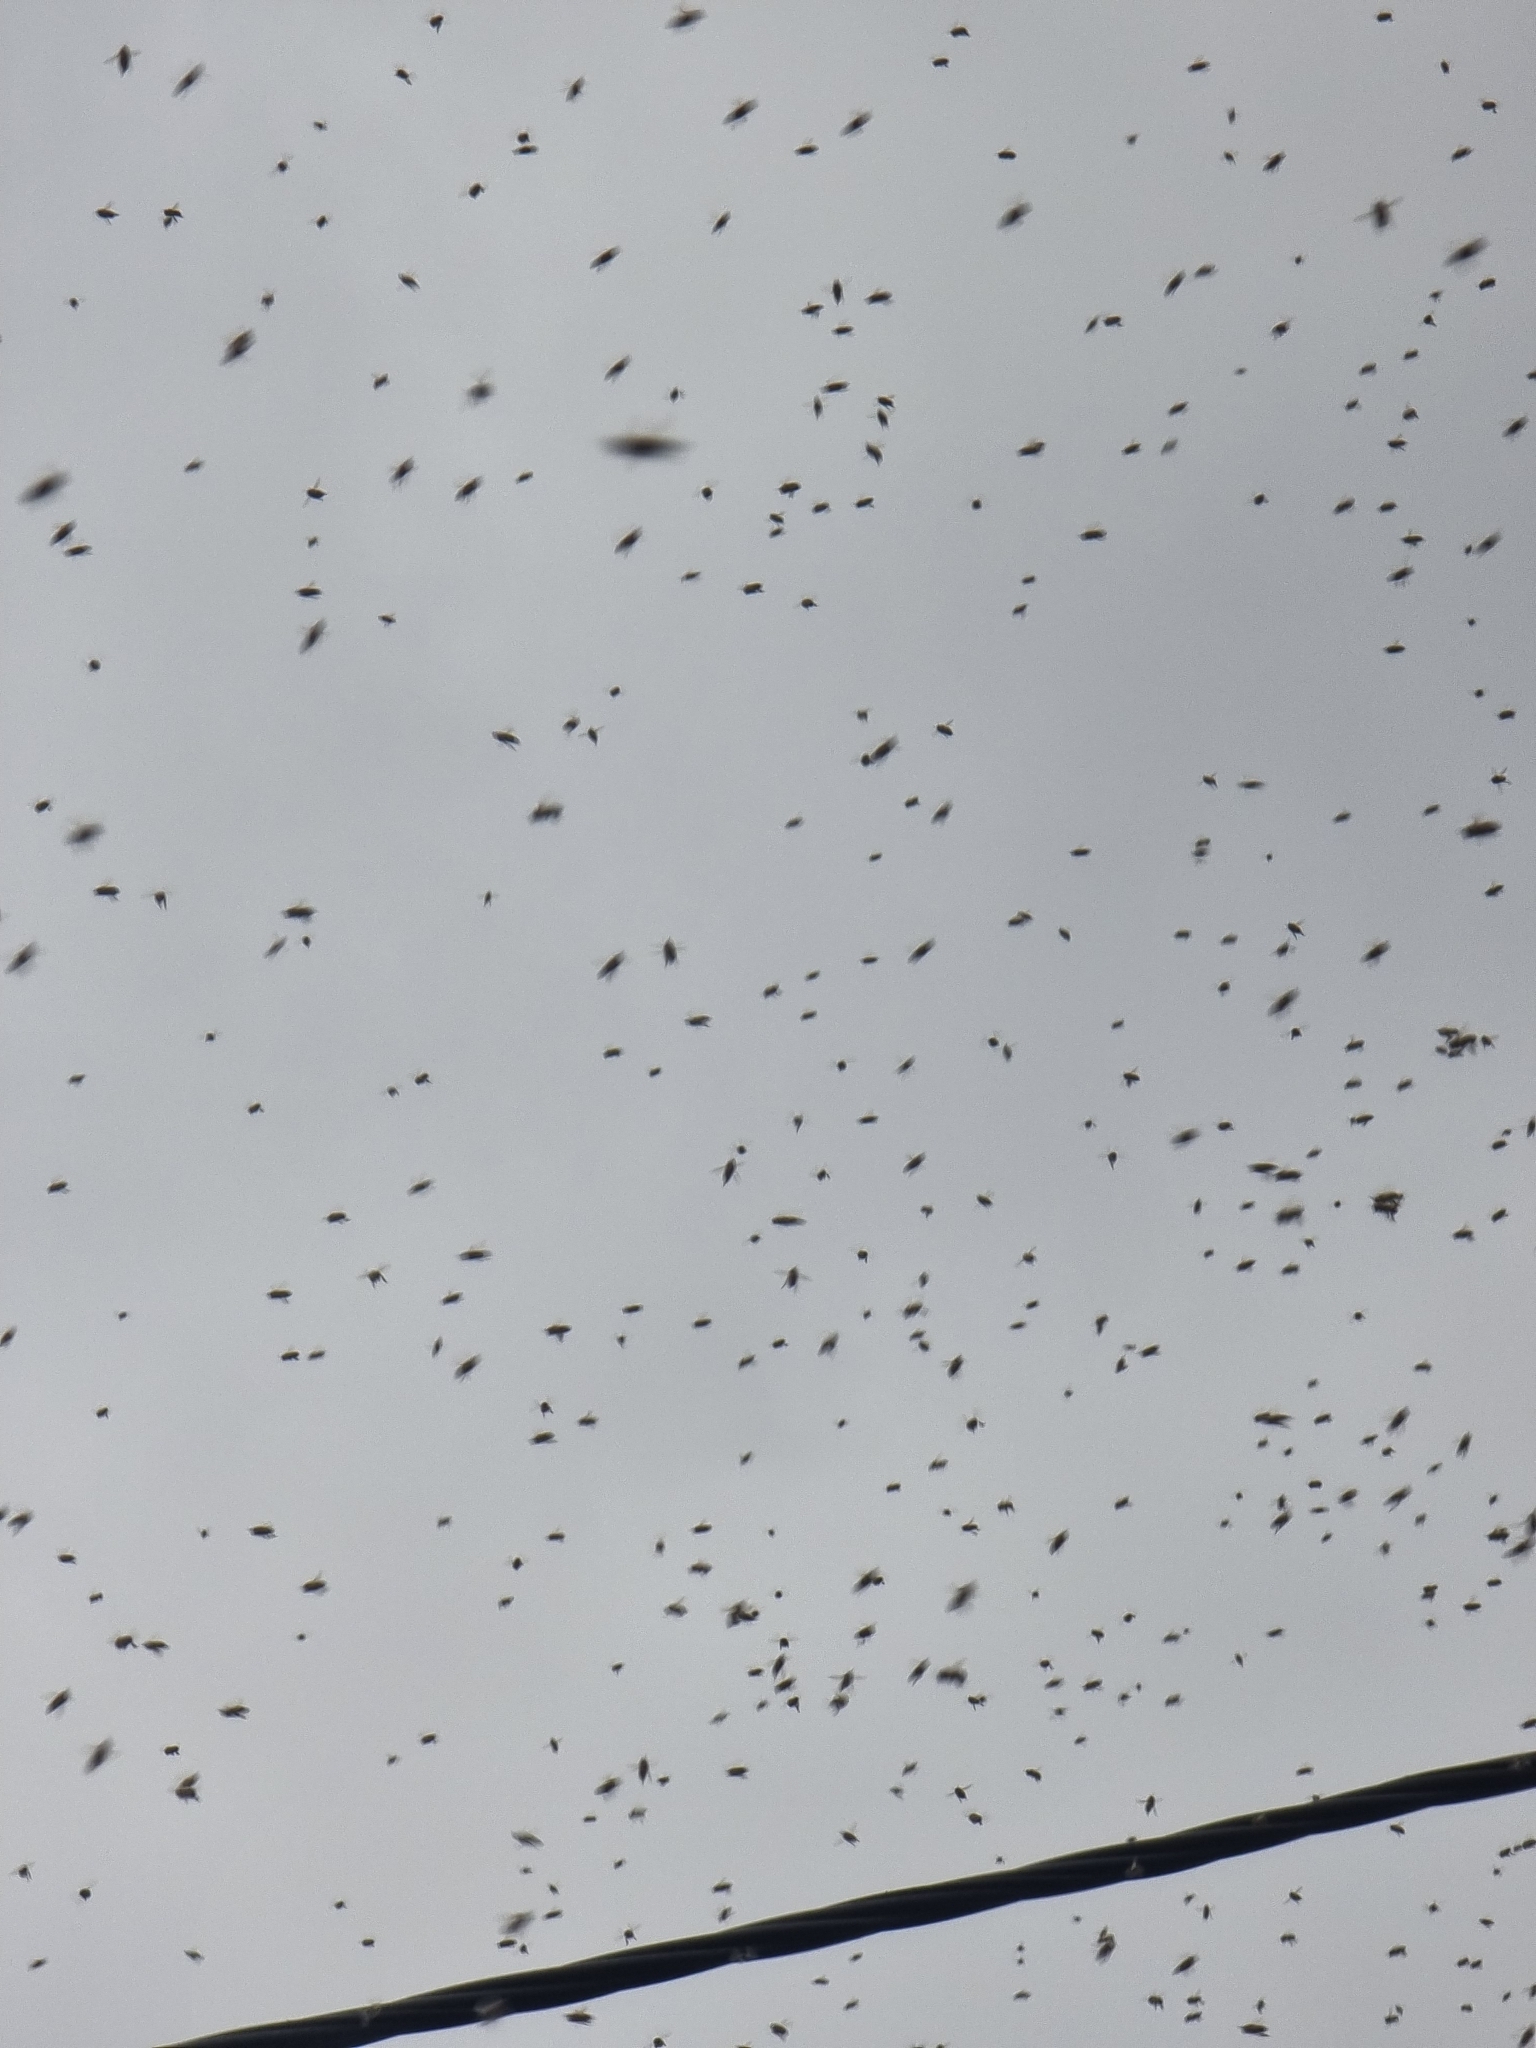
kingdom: Animalia
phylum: Arthropoda
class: Insecta
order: Hymenoptera
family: Apidae
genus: Apis
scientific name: Apis mellifera
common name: Honey bee
